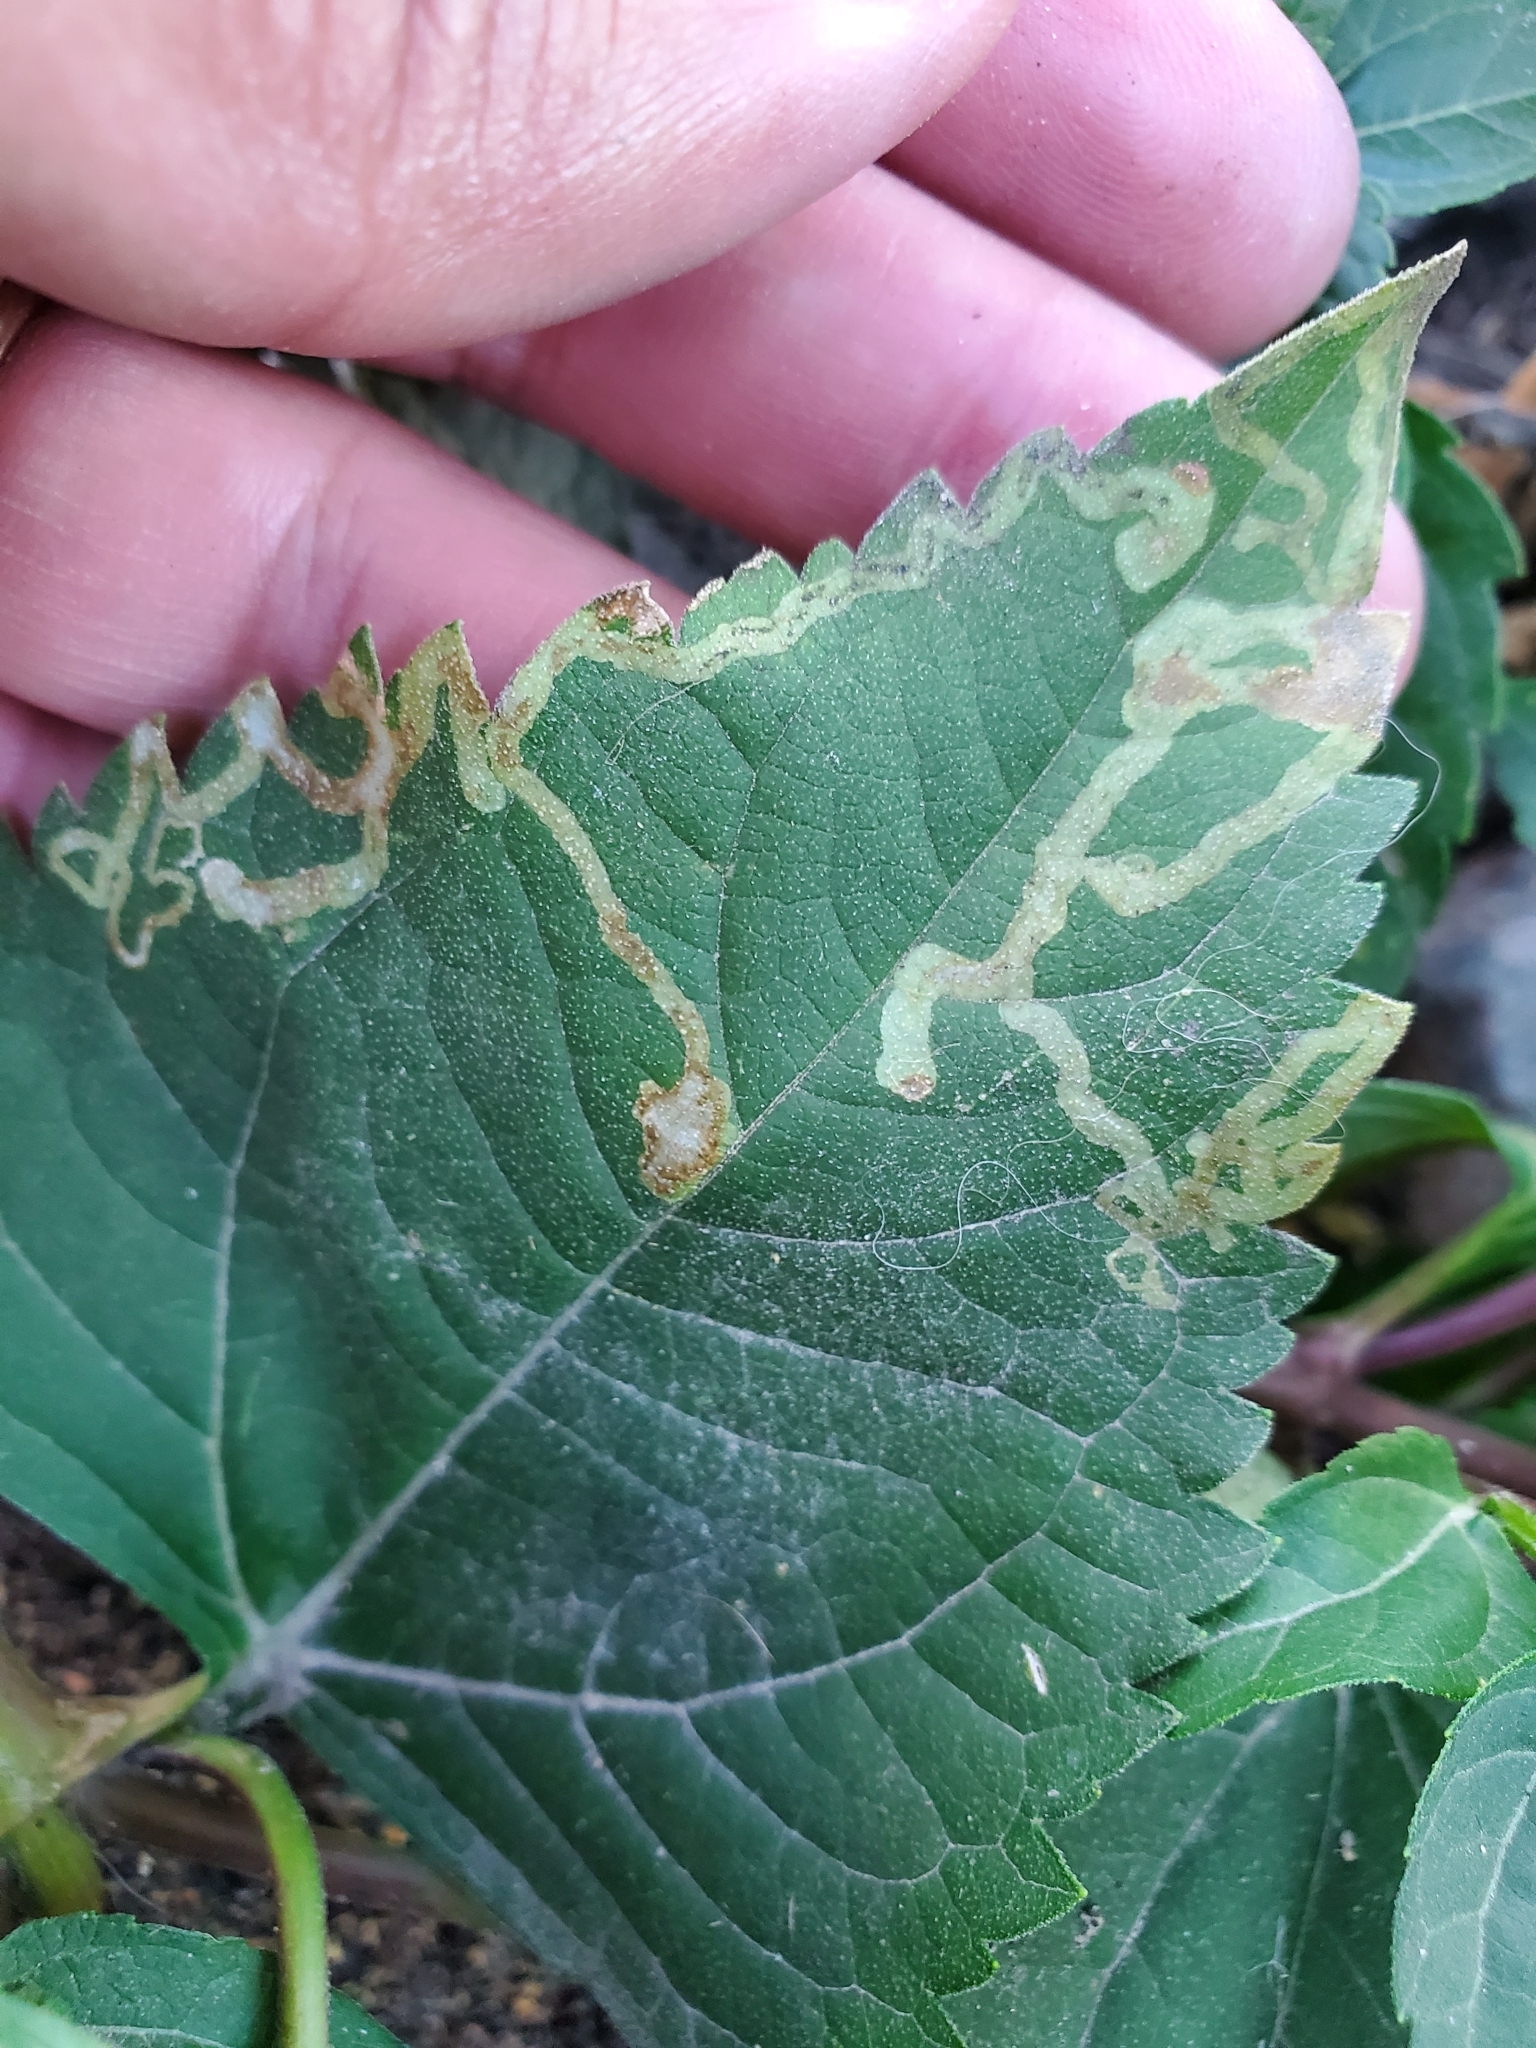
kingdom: Animalia
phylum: Arthropoda
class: Insecta
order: Diptera
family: Agromyzidae
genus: Liriomyza
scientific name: Liriomyza arctii
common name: Burdock leafminer
